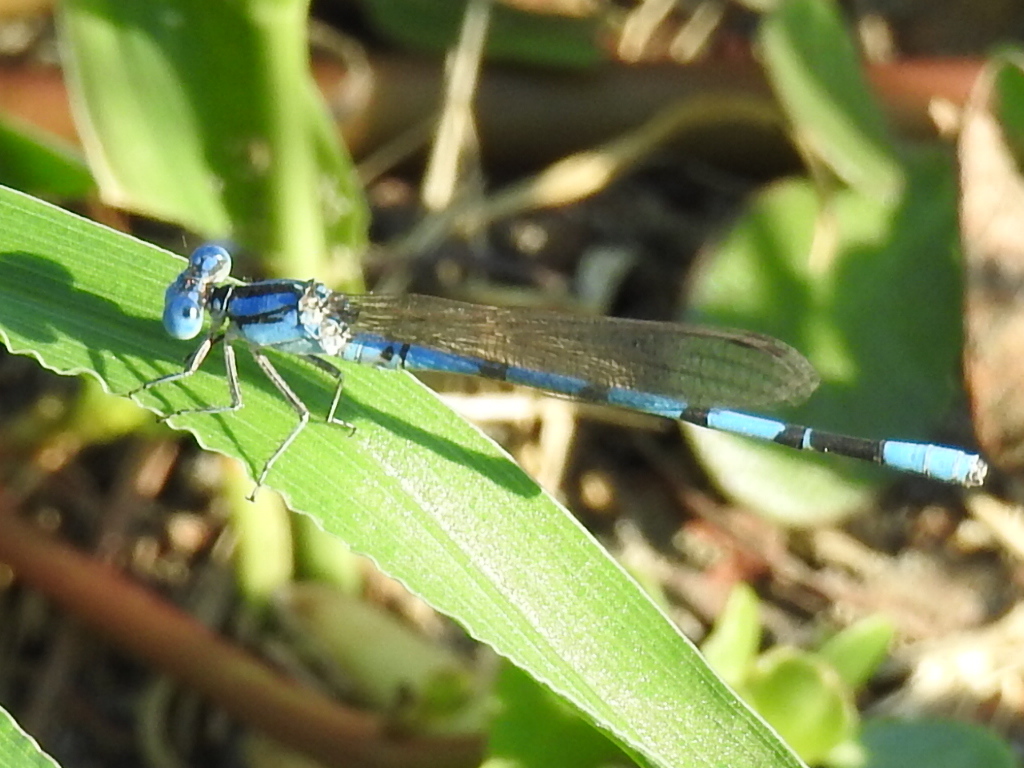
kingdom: Animalia
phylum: Arthropoda
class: Insecta
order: Odonata
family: Coenagrionidae
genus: Argia
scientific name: Argia nahuana
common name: Aztec dancer
